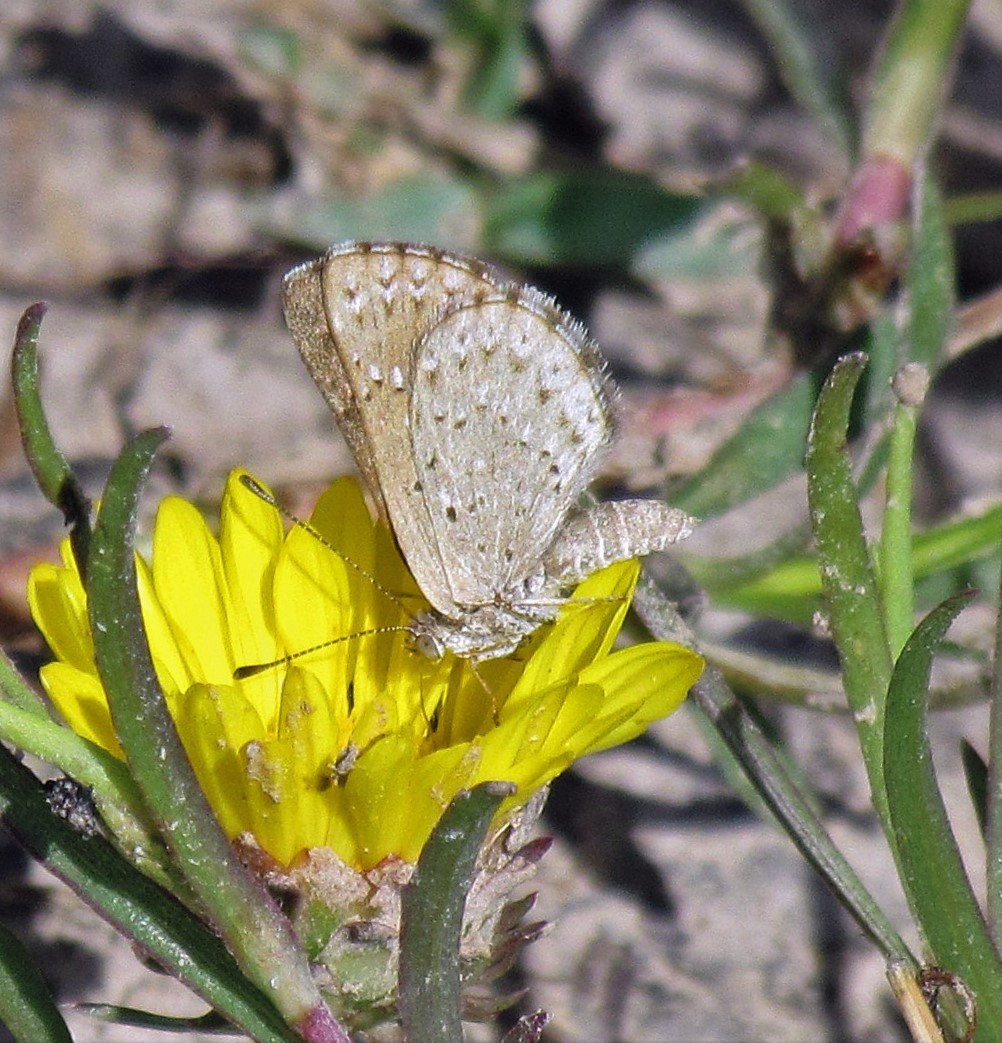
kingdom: Animalia
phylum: Arthropoda
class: Insecta
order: Lepidoptera
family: Riodinidae
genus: Zabuella
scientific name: Zabuella tenellus
